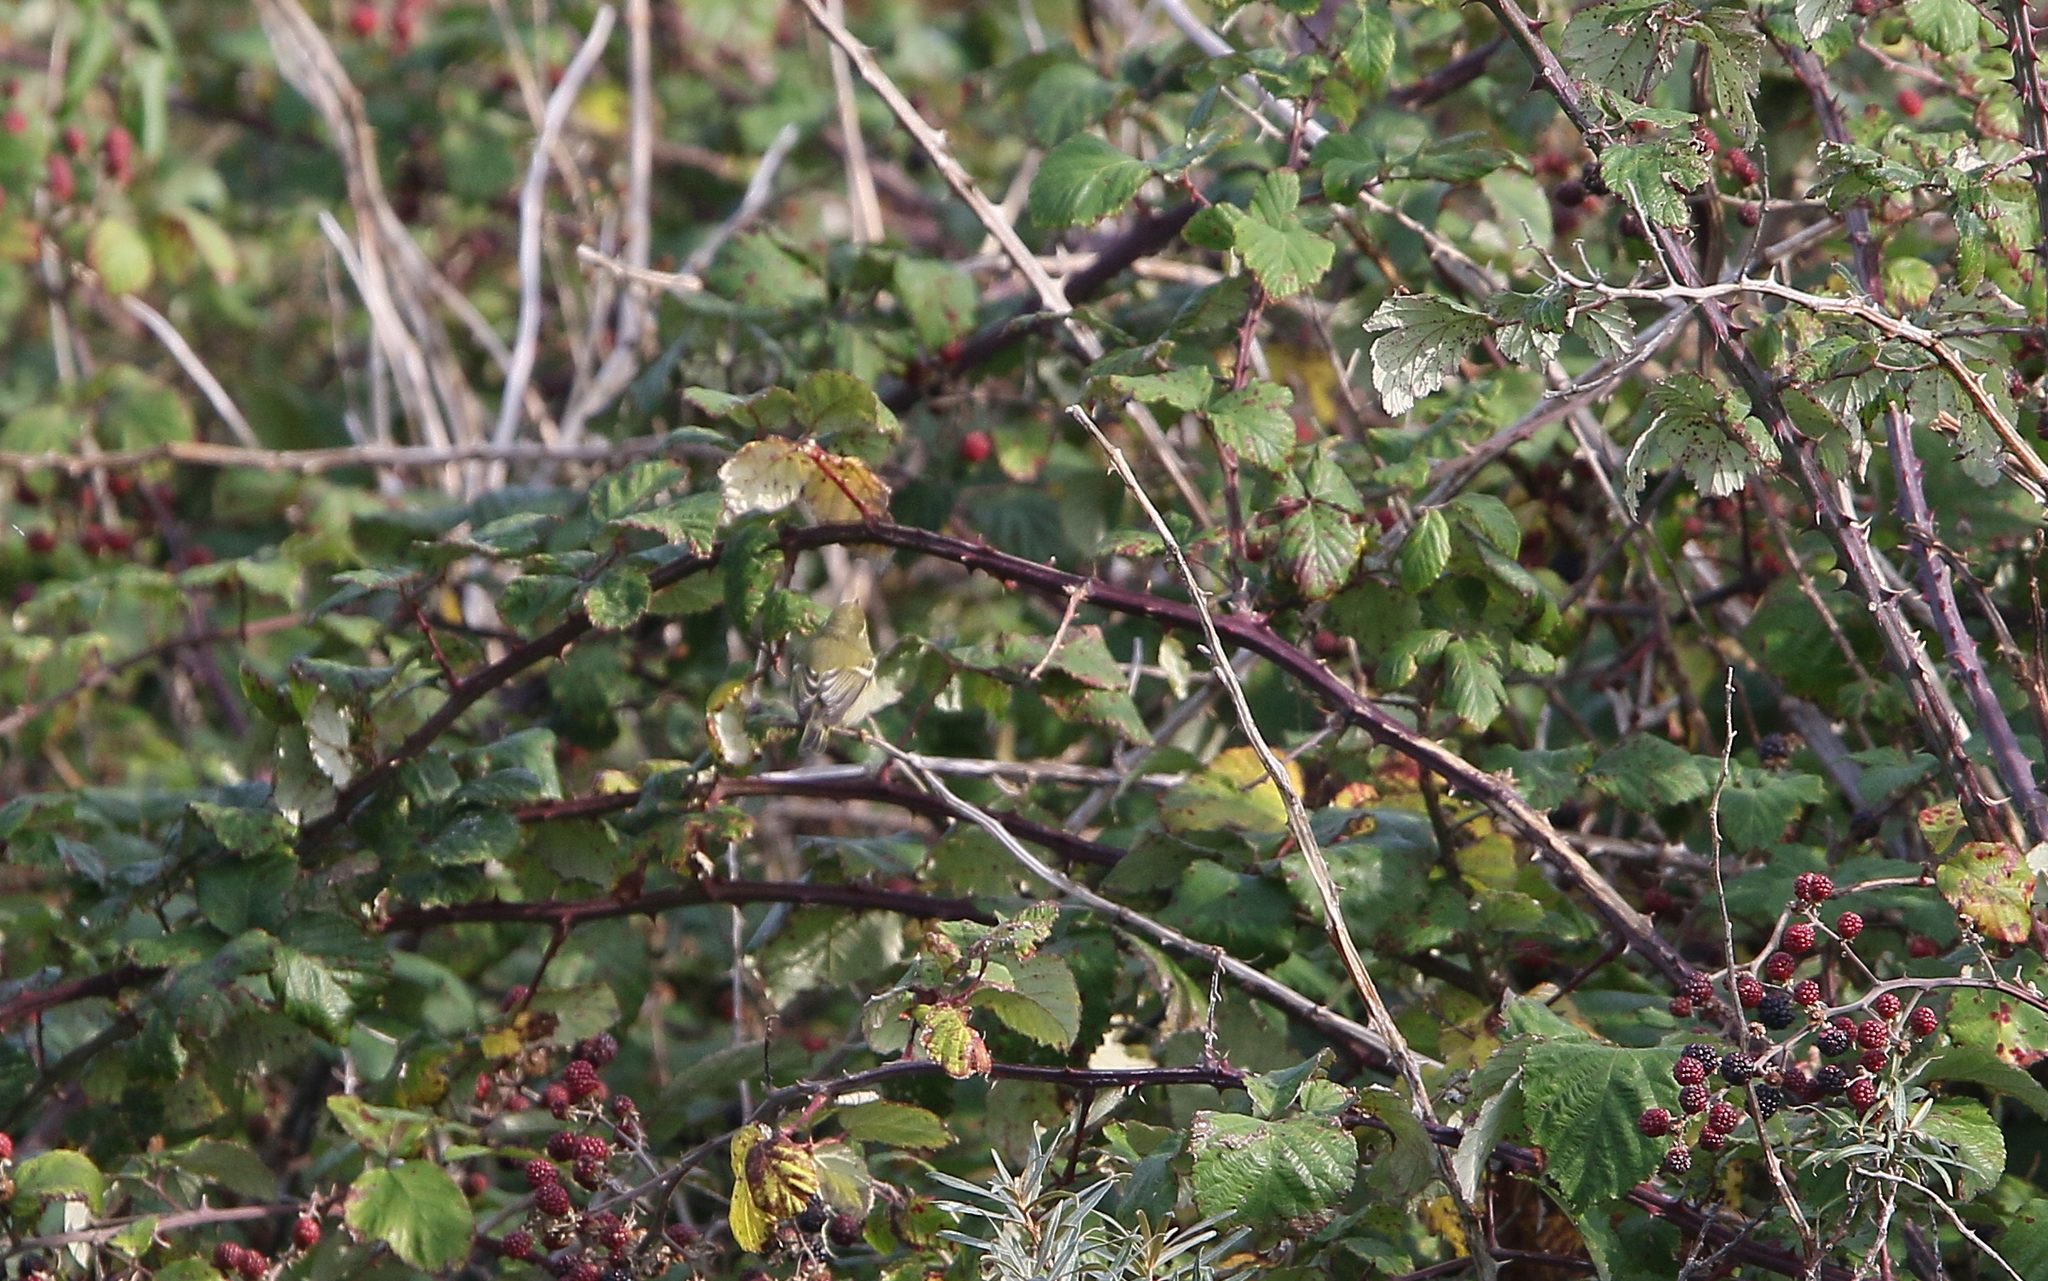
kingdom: Animalia
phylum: Chordata
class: Aves
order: Passeriformes
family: Phylloscopidae
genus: Phylloscopus
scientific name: Phylloscopus inornatus
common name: Yellow-browed warbler
